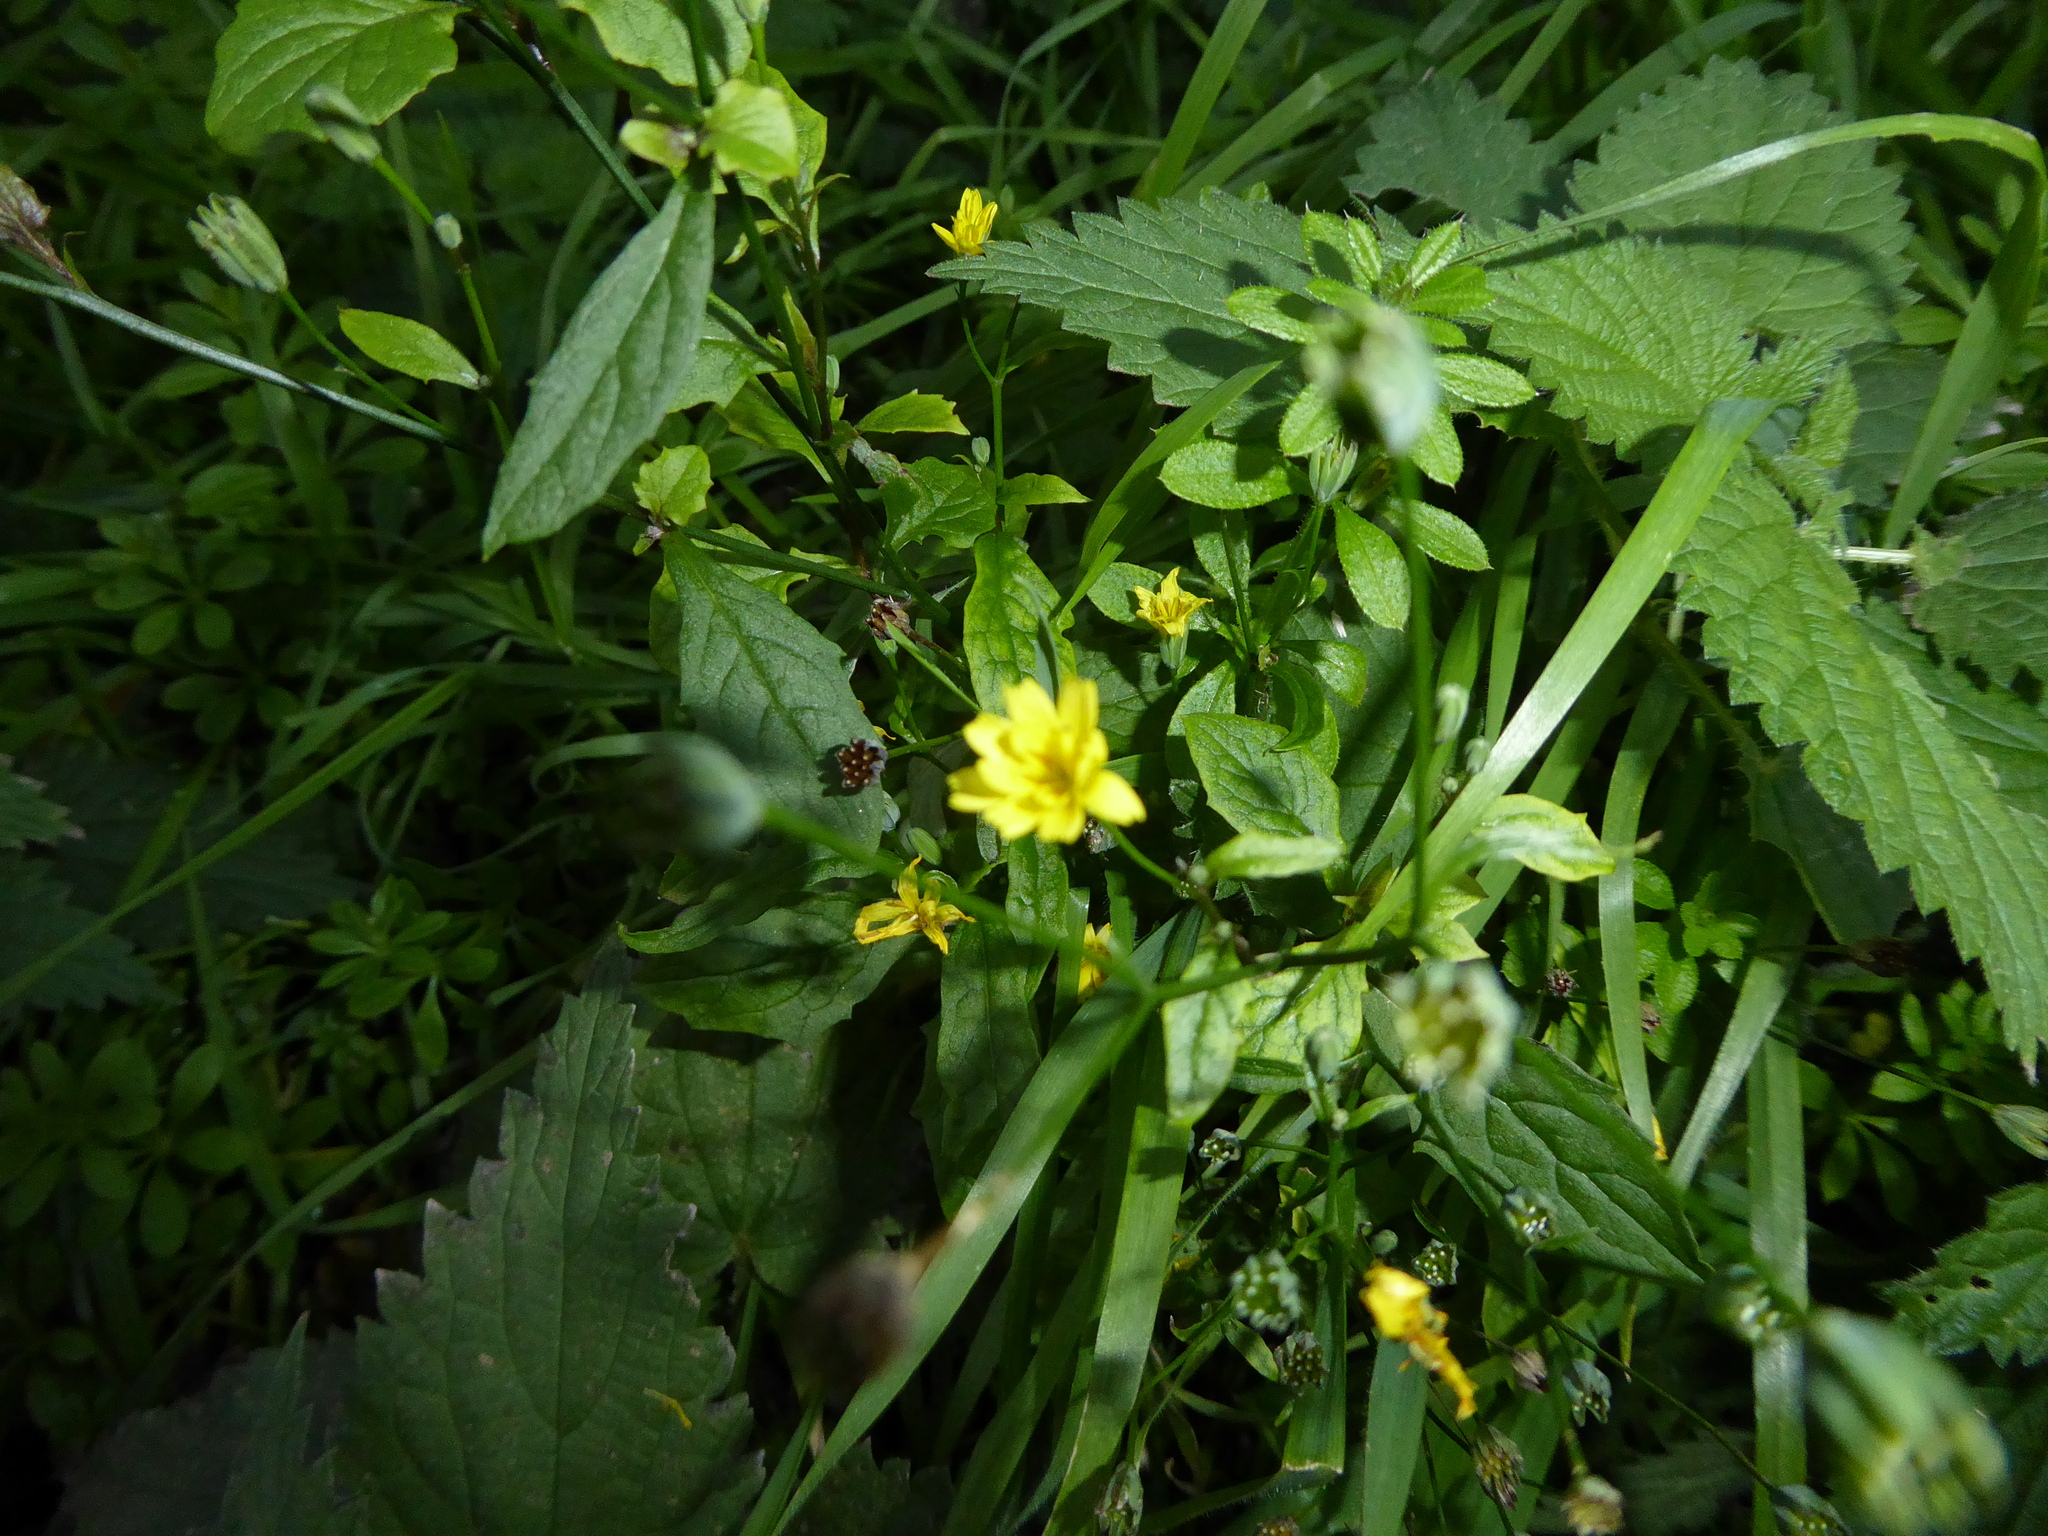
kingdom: Plantae
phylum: Tracheophyta
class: Magnoliopsida
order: Asterales
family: Asteraceae
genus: Lapsana
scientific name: Lapsana communis
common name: Nipplewort
